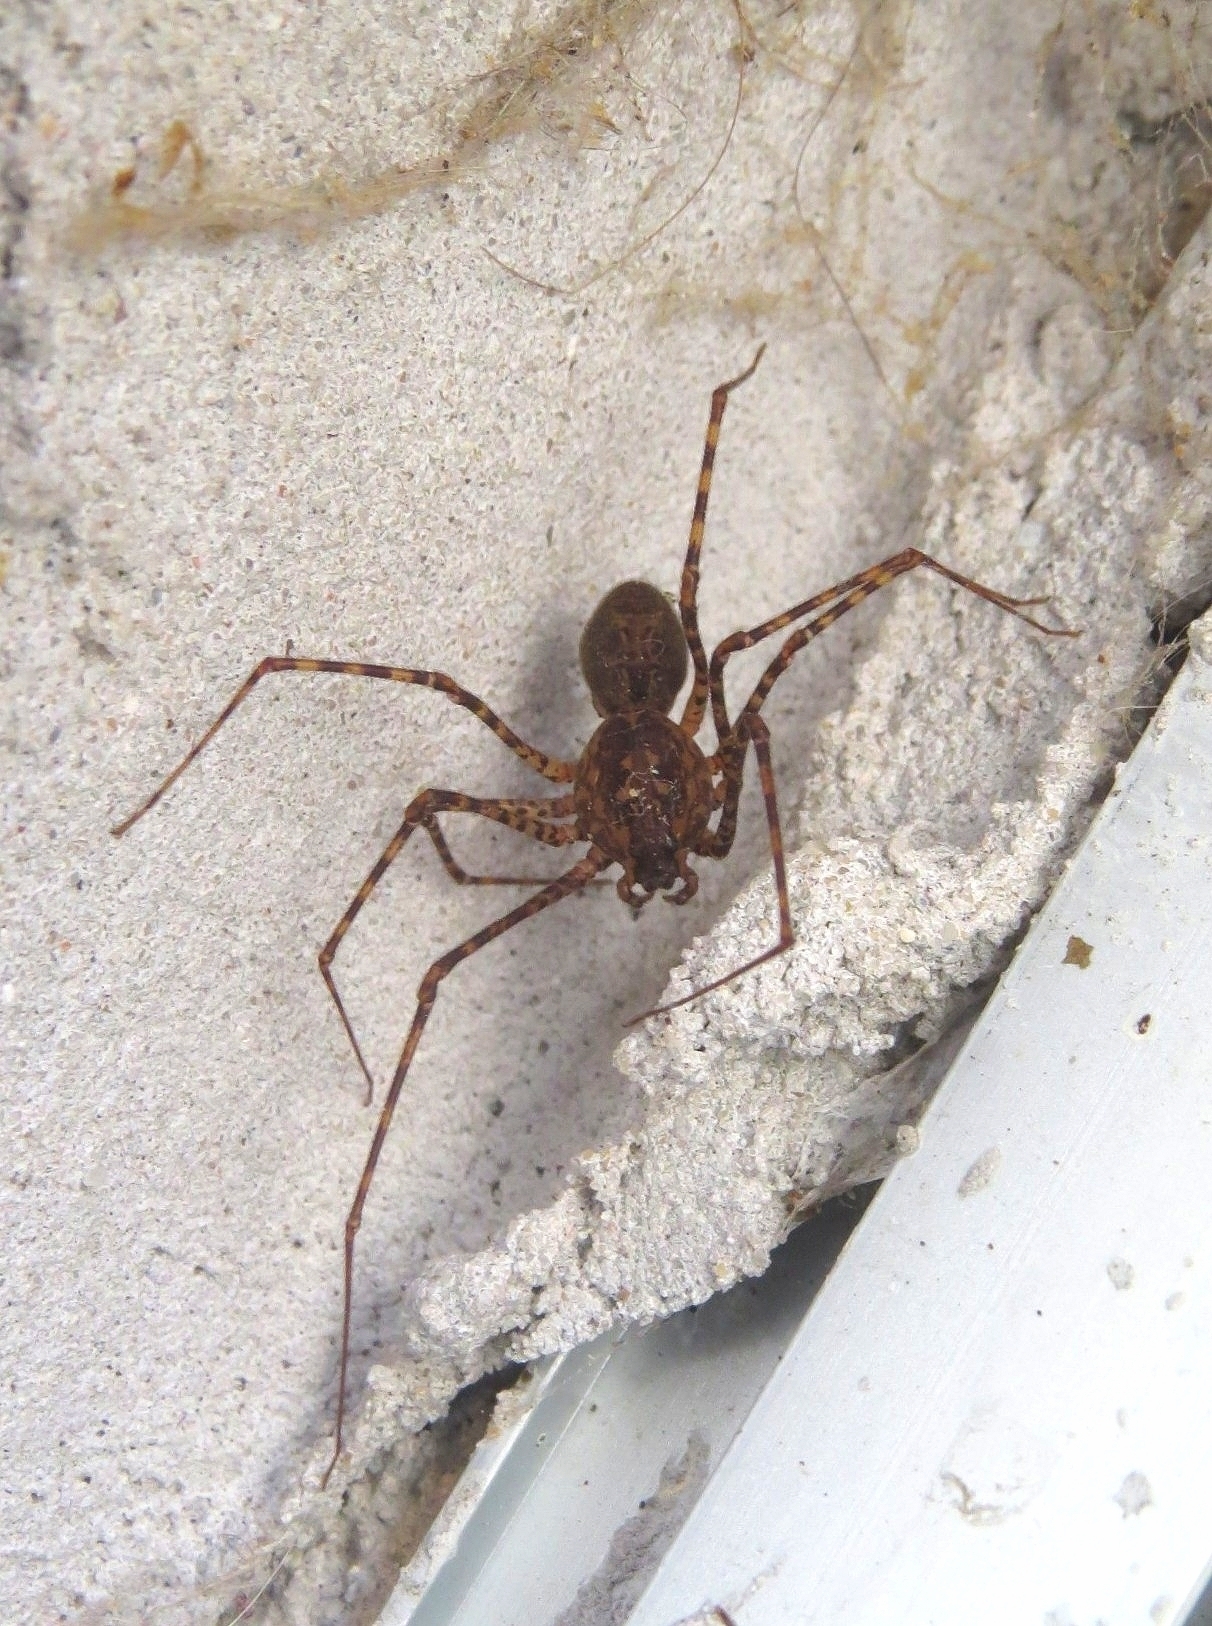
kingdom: Animalia
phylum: Arthropoda
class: Arachnida
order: Araneae
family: Scytodidae
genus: Scytodes
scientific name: Scytodes globula
